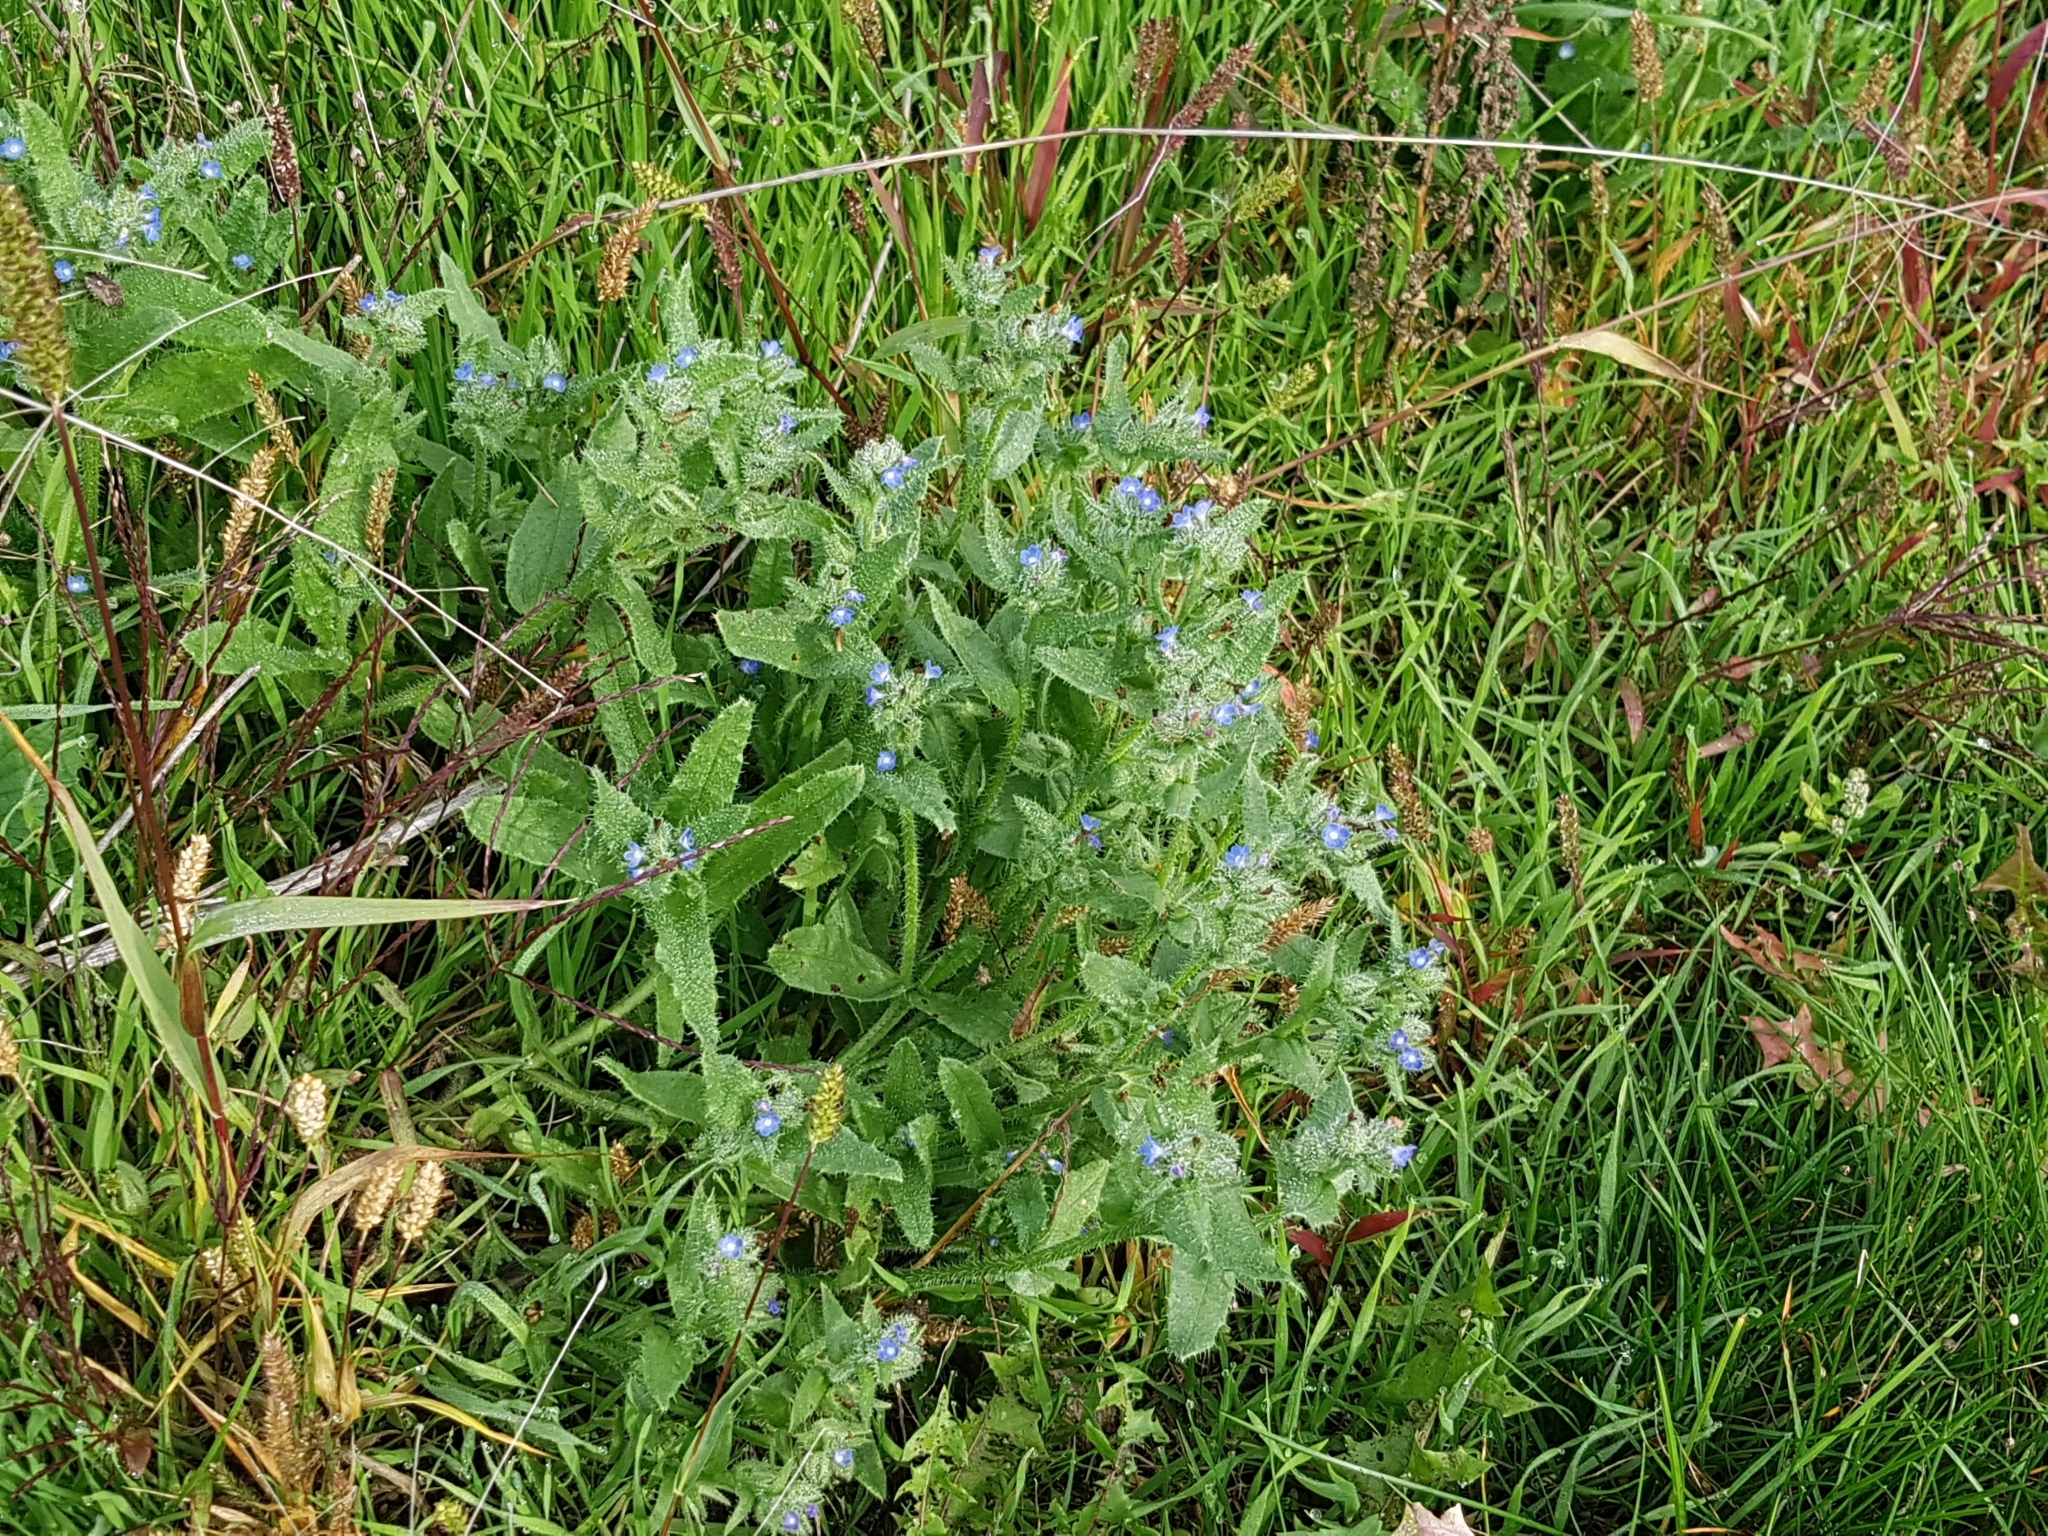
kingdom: Plantae
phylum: Tracheophyta
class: Magnoliopsida
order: Boraginales
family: Boraginaceae
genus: Lycopsis
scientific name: Lycopsis arvensis
